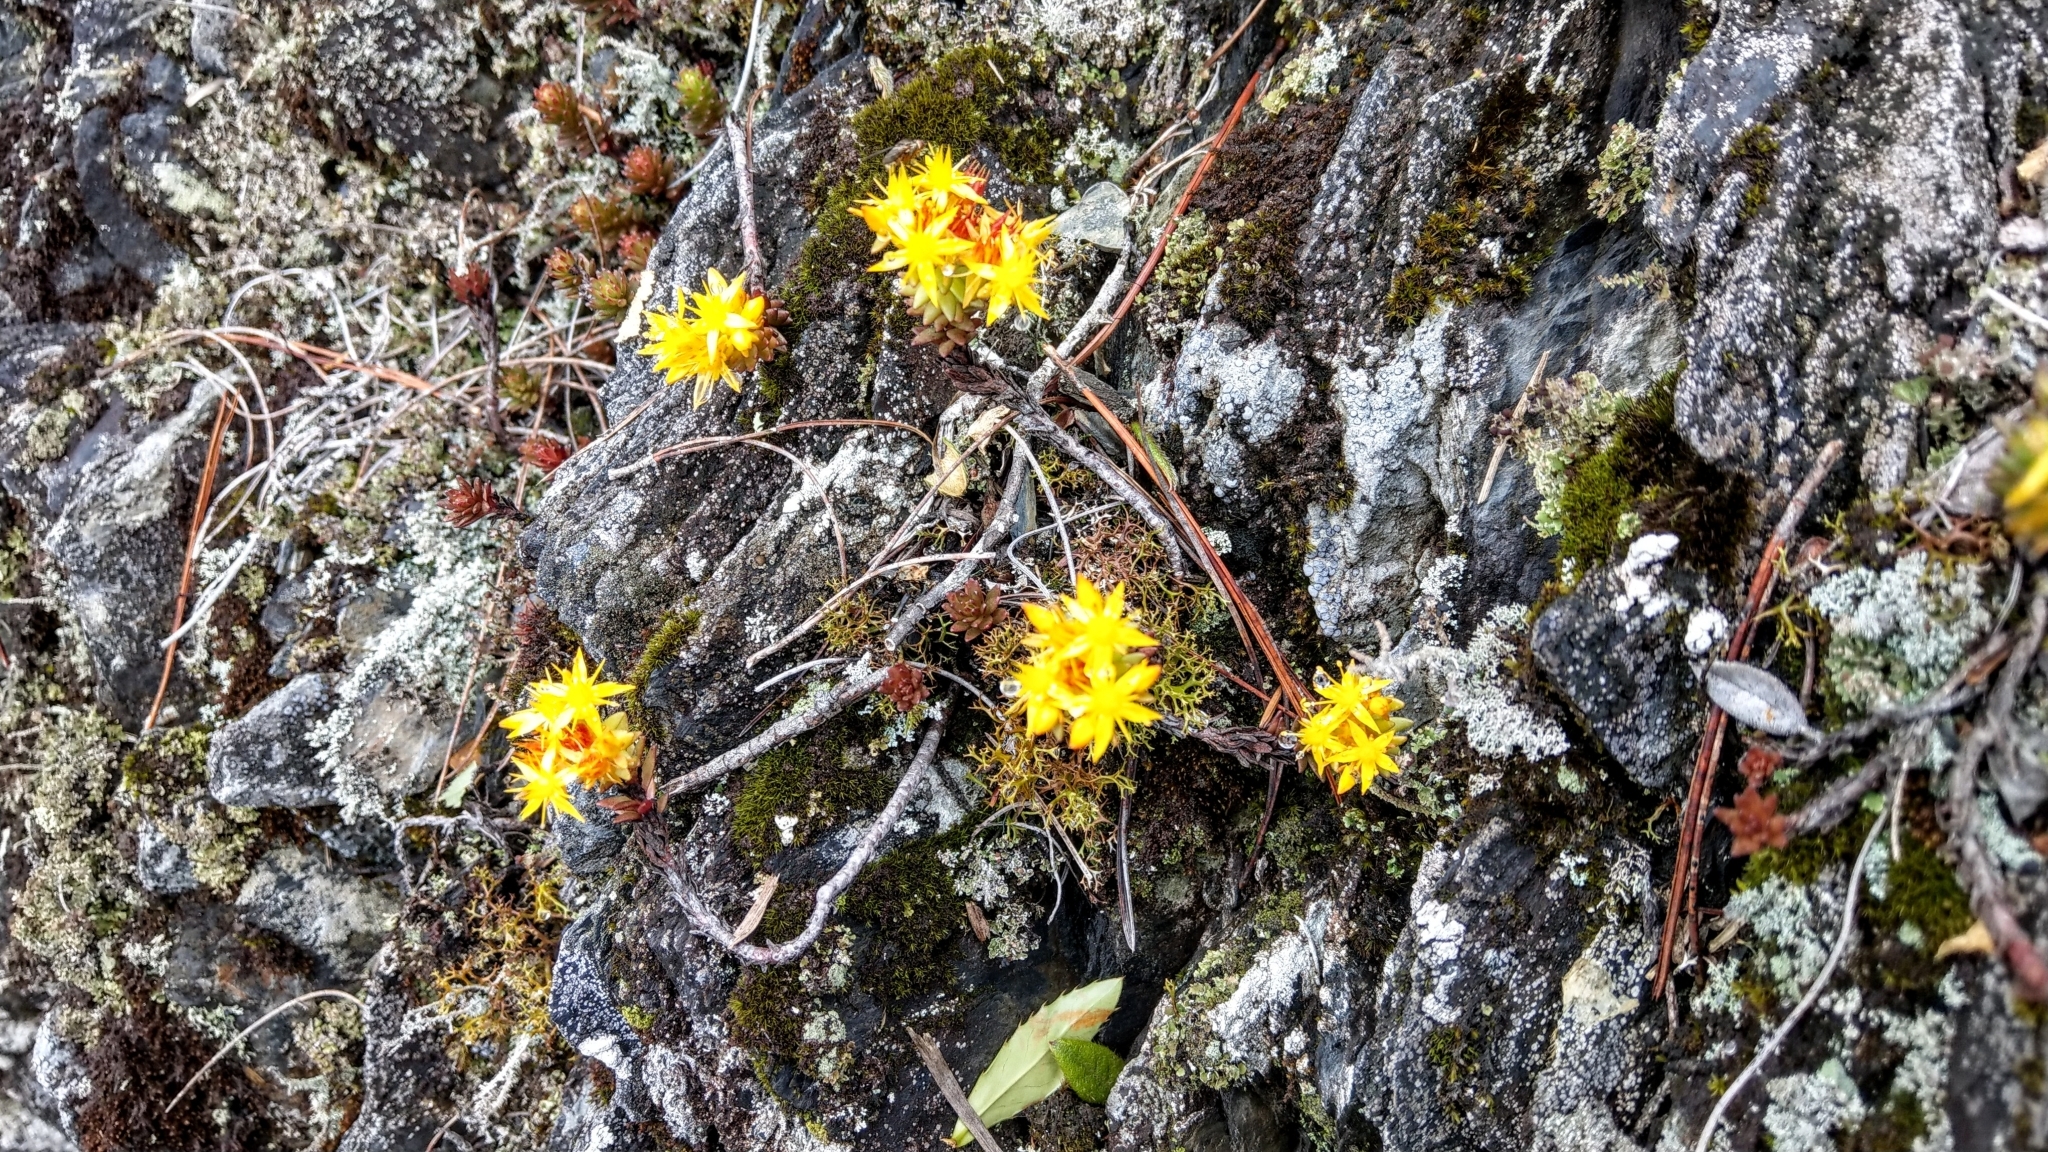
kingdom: Plantae
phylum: Tracheophyta
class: Magnoliopsida
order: Saxifragales
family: Crassulaceae
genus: Sedum
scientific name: Sedum morrisonense
